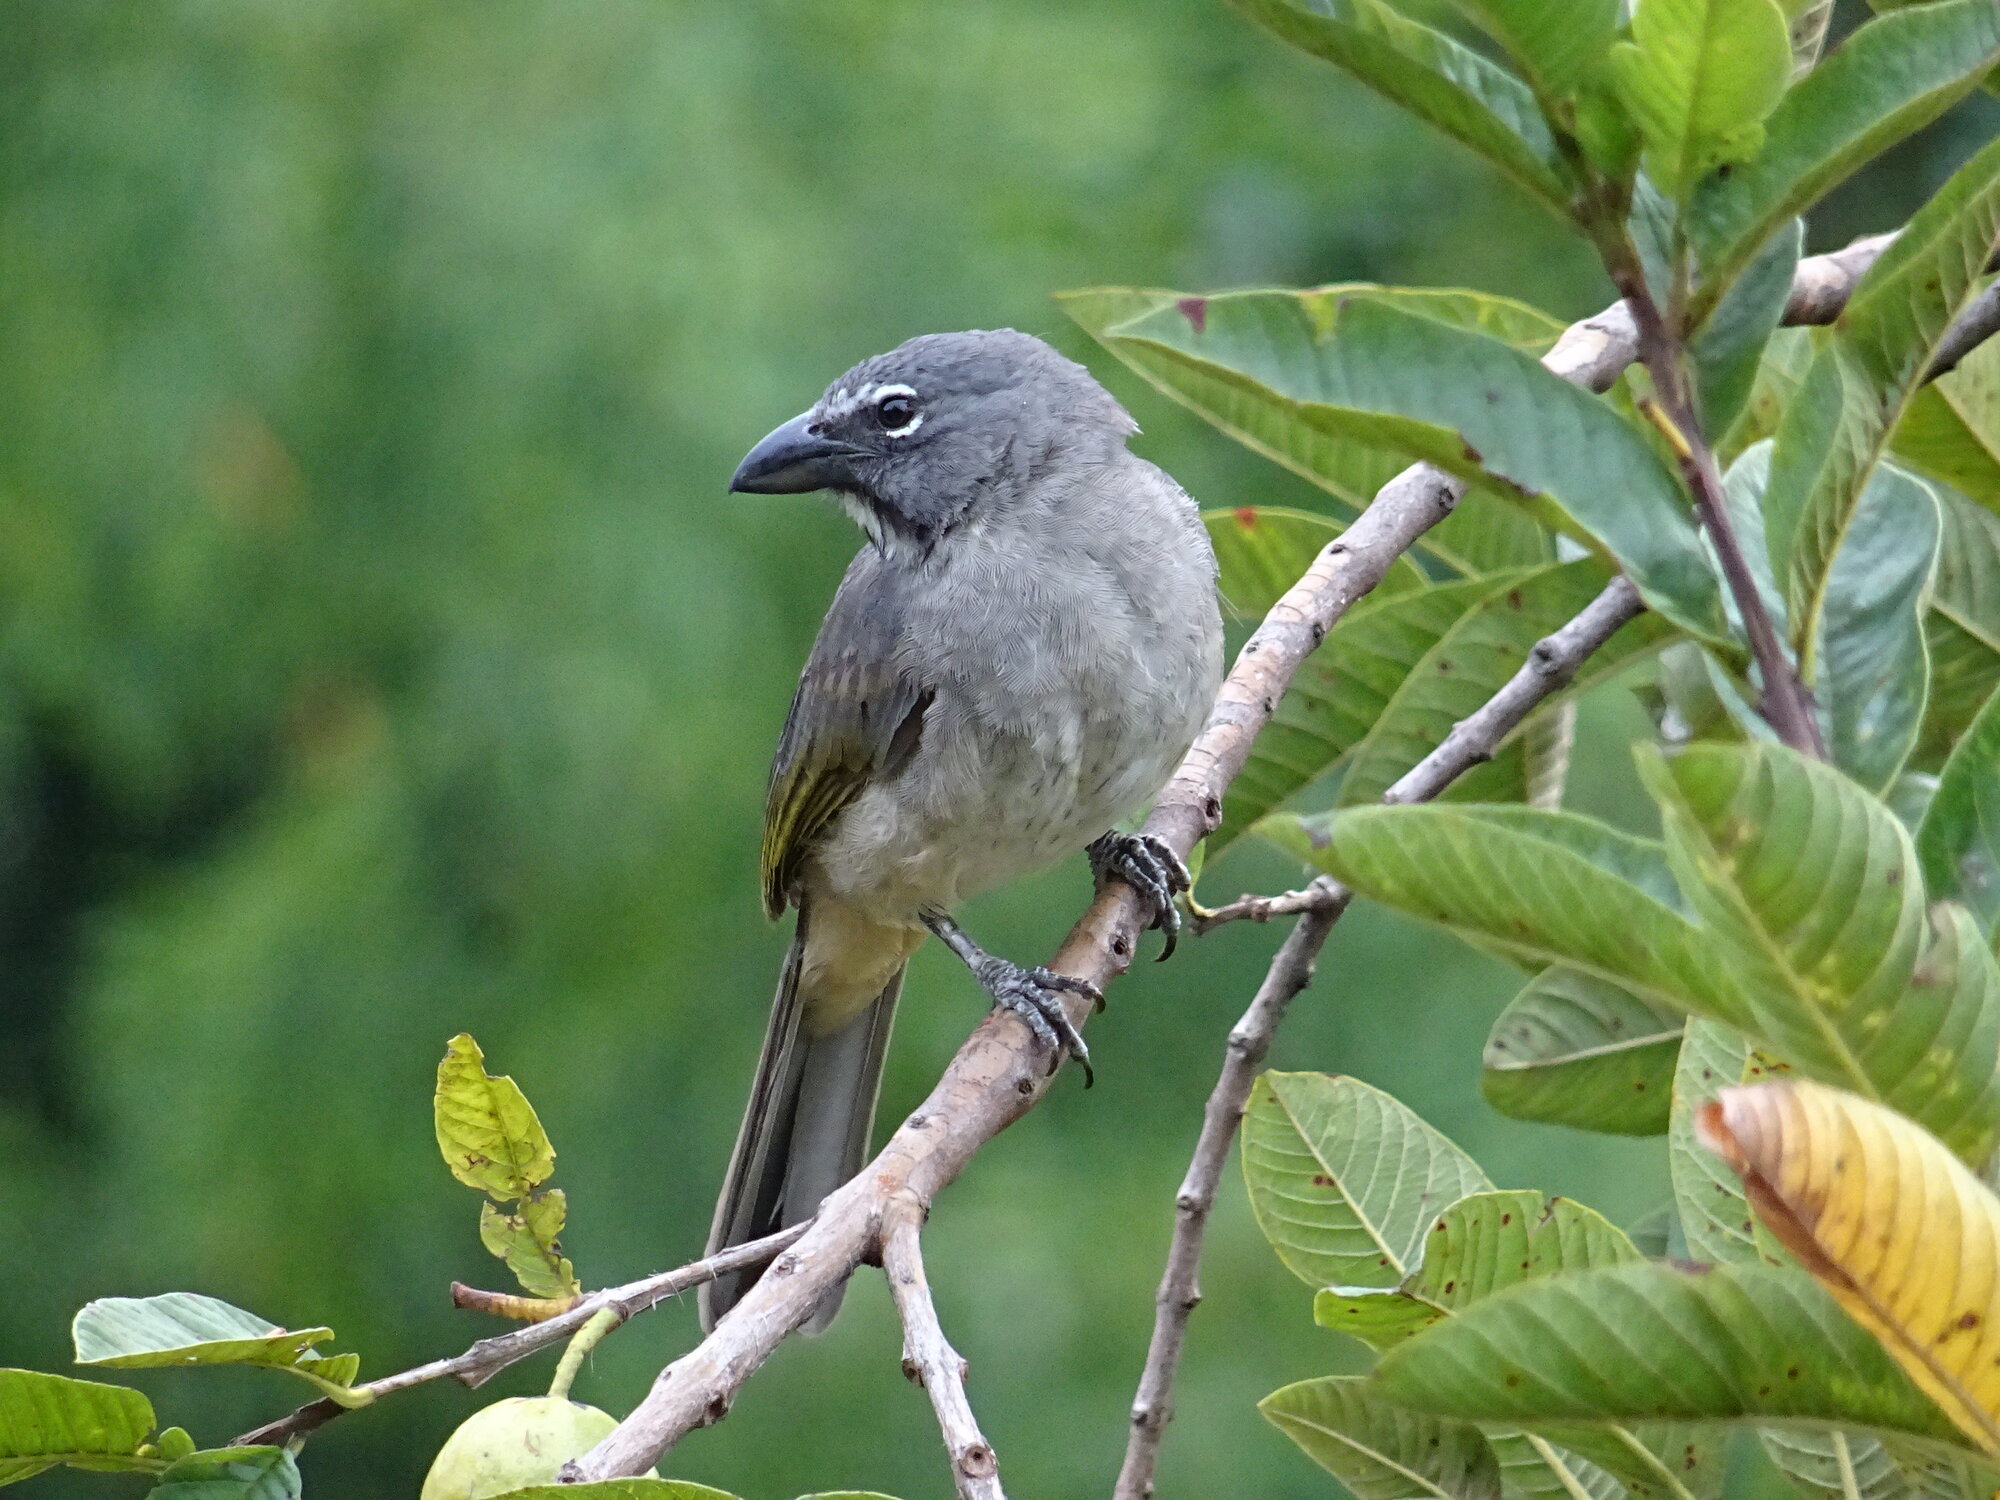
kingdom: Animalia
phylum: Chordata
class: Aves
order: Passeriformes
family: Thraupidae
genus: Saltator
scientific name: Saltator olivascens
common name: Caribbean grey saltator
